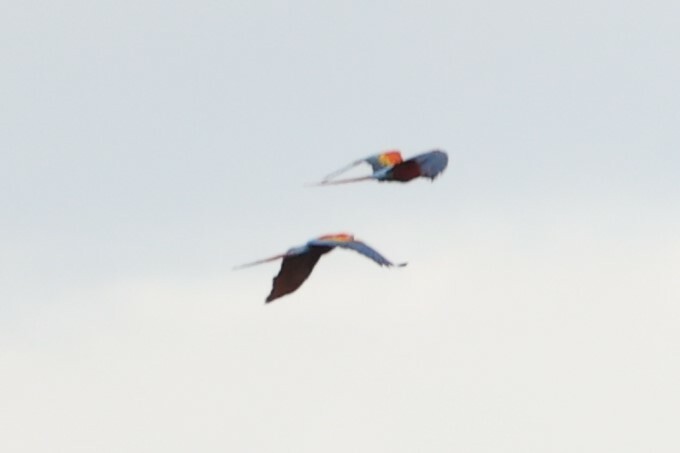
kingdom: Animalia
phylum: Chordata
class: Aves
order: Psittaciformes
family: Psittacidae
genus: Ara
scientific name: Ara macao
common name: Scarlet macaw
